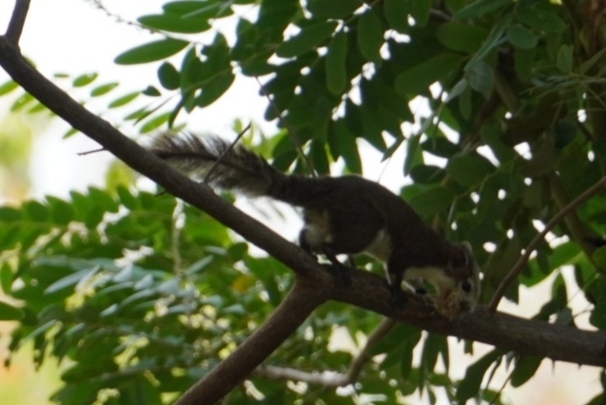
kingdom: Animalia
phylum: Chordata
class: Mammalia
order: Rodentia
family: Sciuridae
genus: Callosciurus
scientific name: Callosciurus finlaysonii
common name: Finlayson's squirrel
